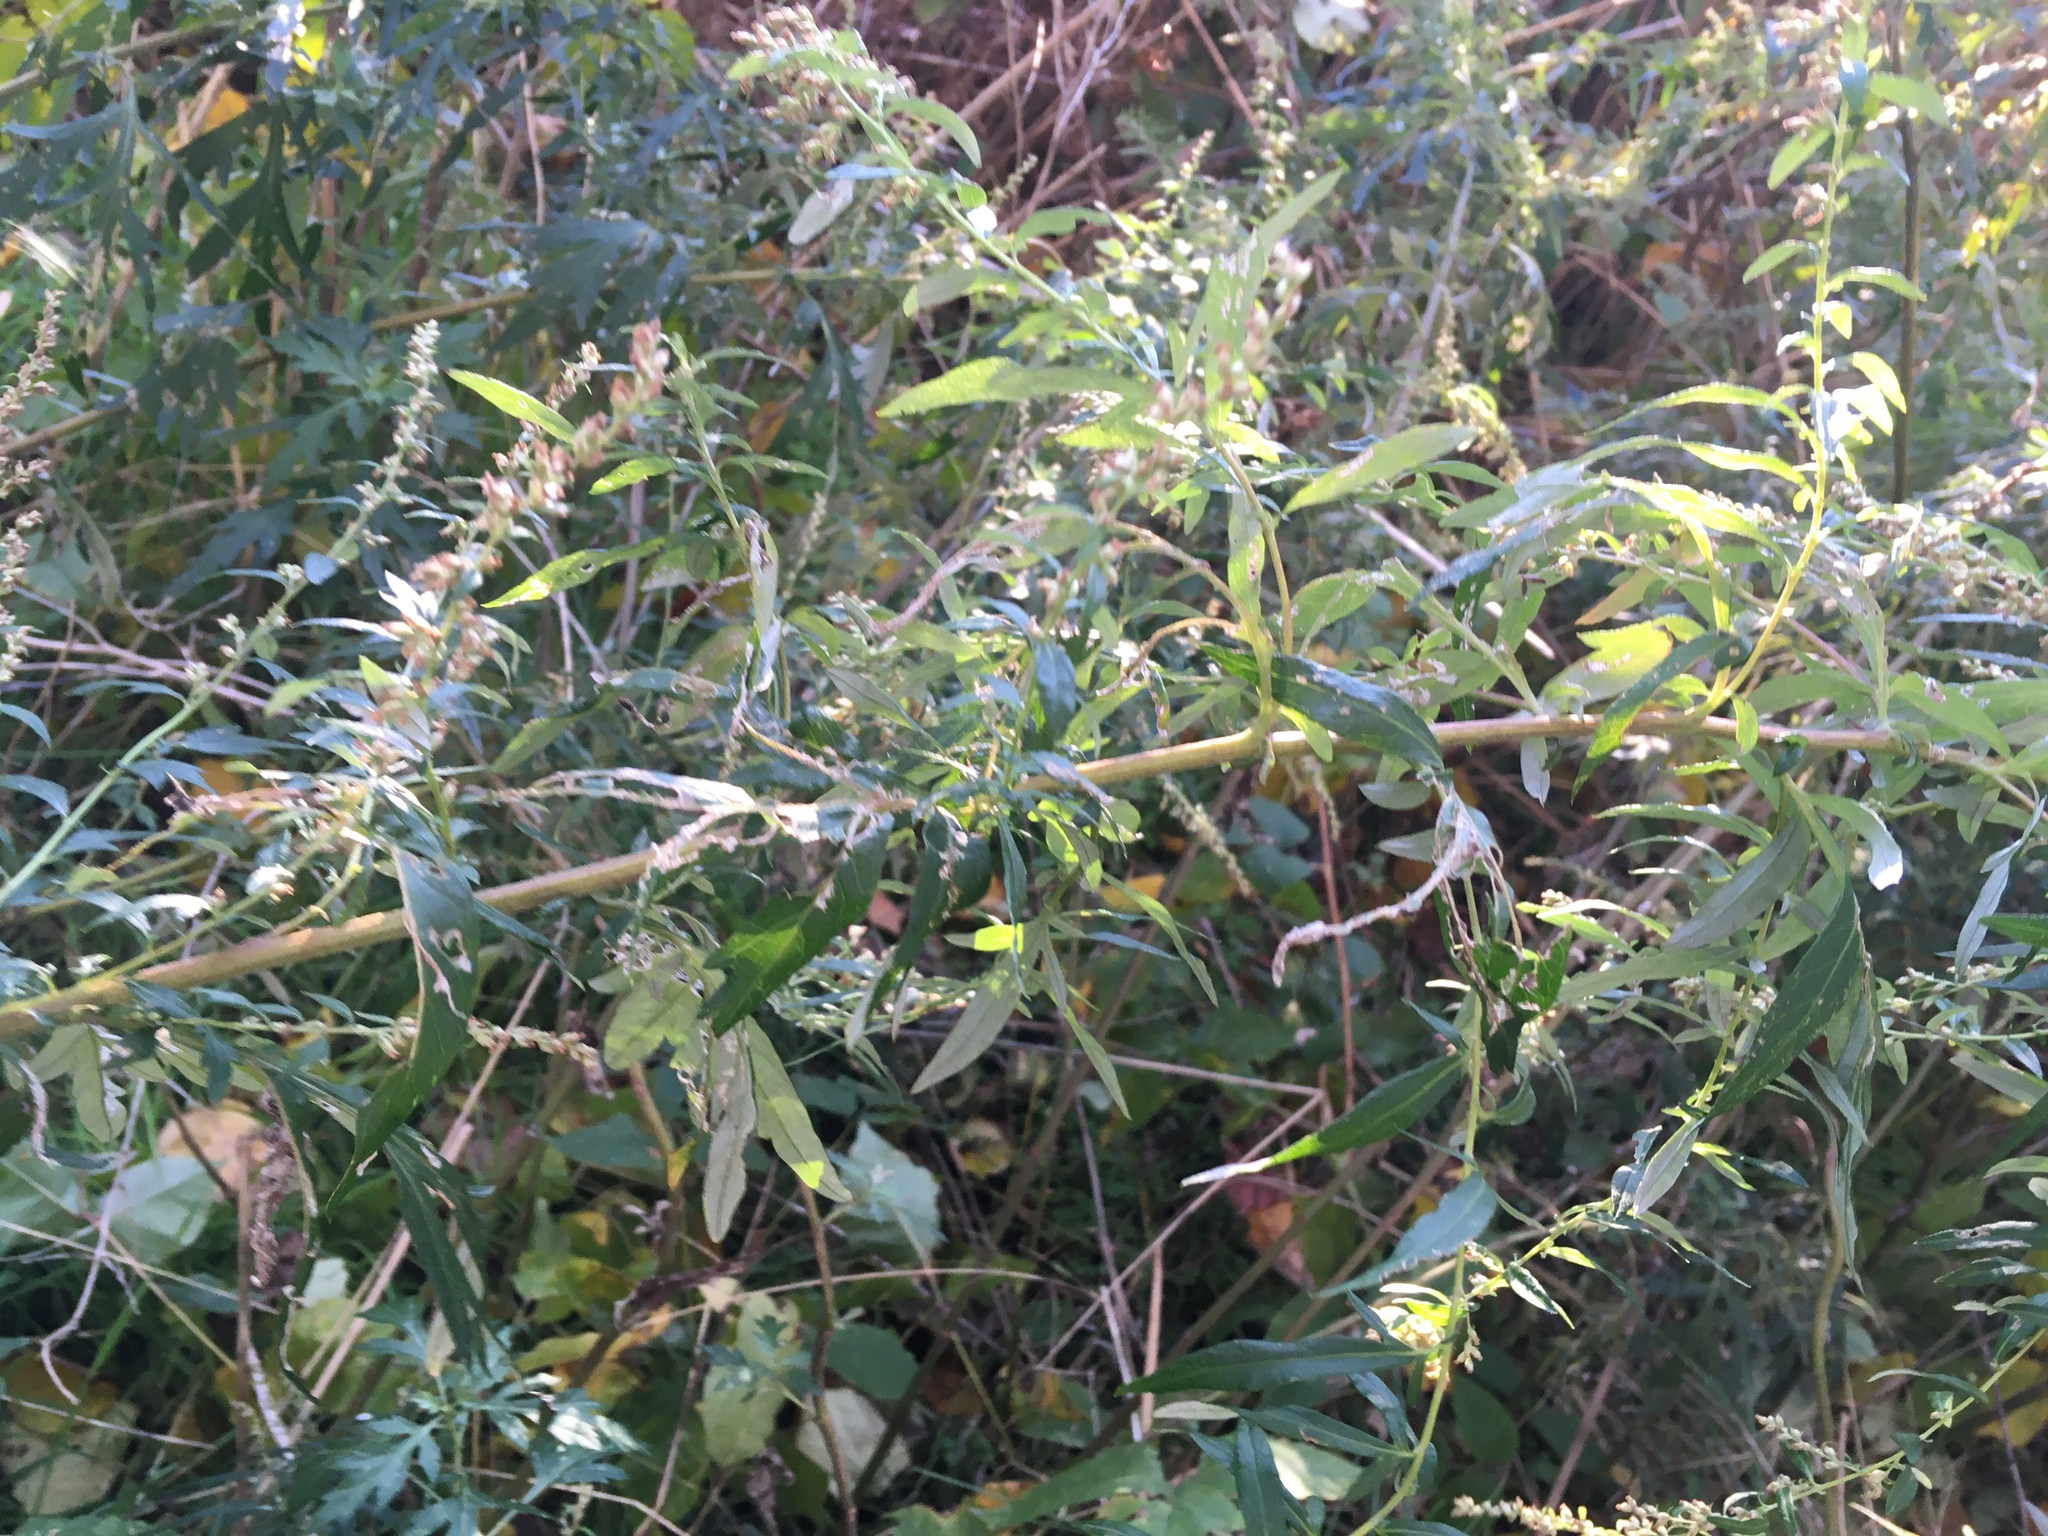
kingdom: Plantae
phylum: Tracheophyta
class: Magnoliopsida
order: Asterales
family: Asteraceae
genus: Artemisia
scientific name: Artemisia vulgaris
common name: Mugwort
